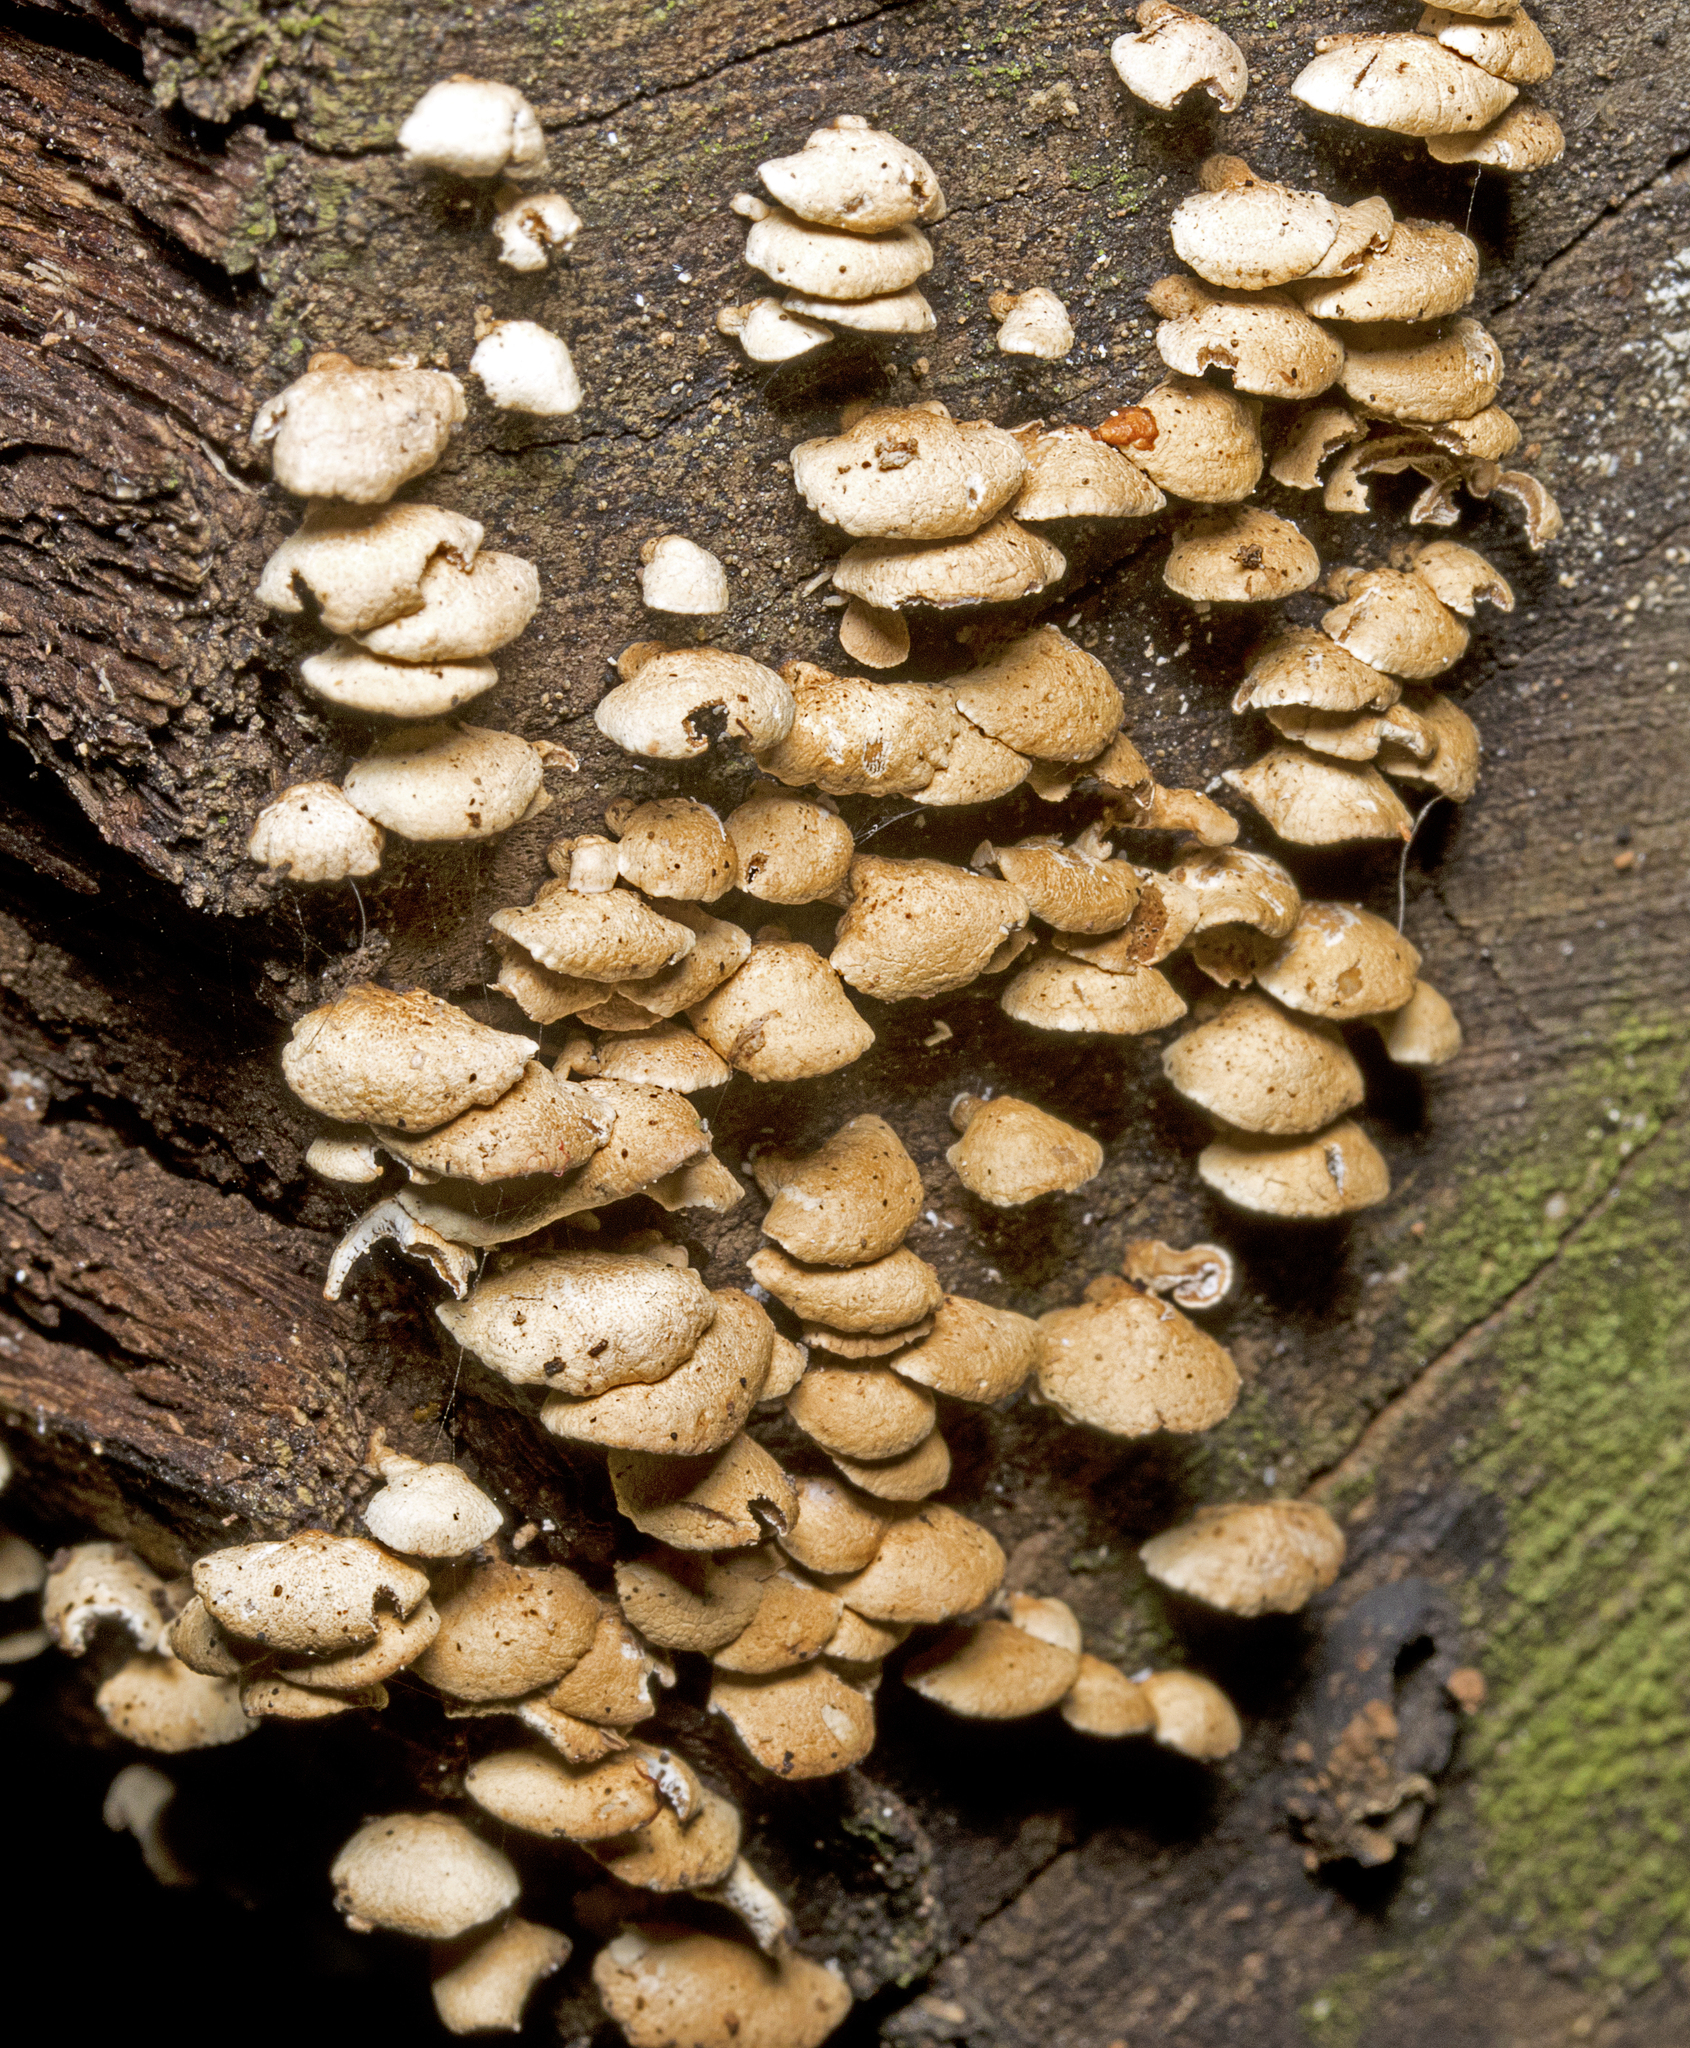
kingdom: Fungi
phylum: Basidiomycota
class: Agaricomycetes
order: Agaricales
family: Mycenaceae
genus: Panellus
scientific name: Panellus luxfilamentus
